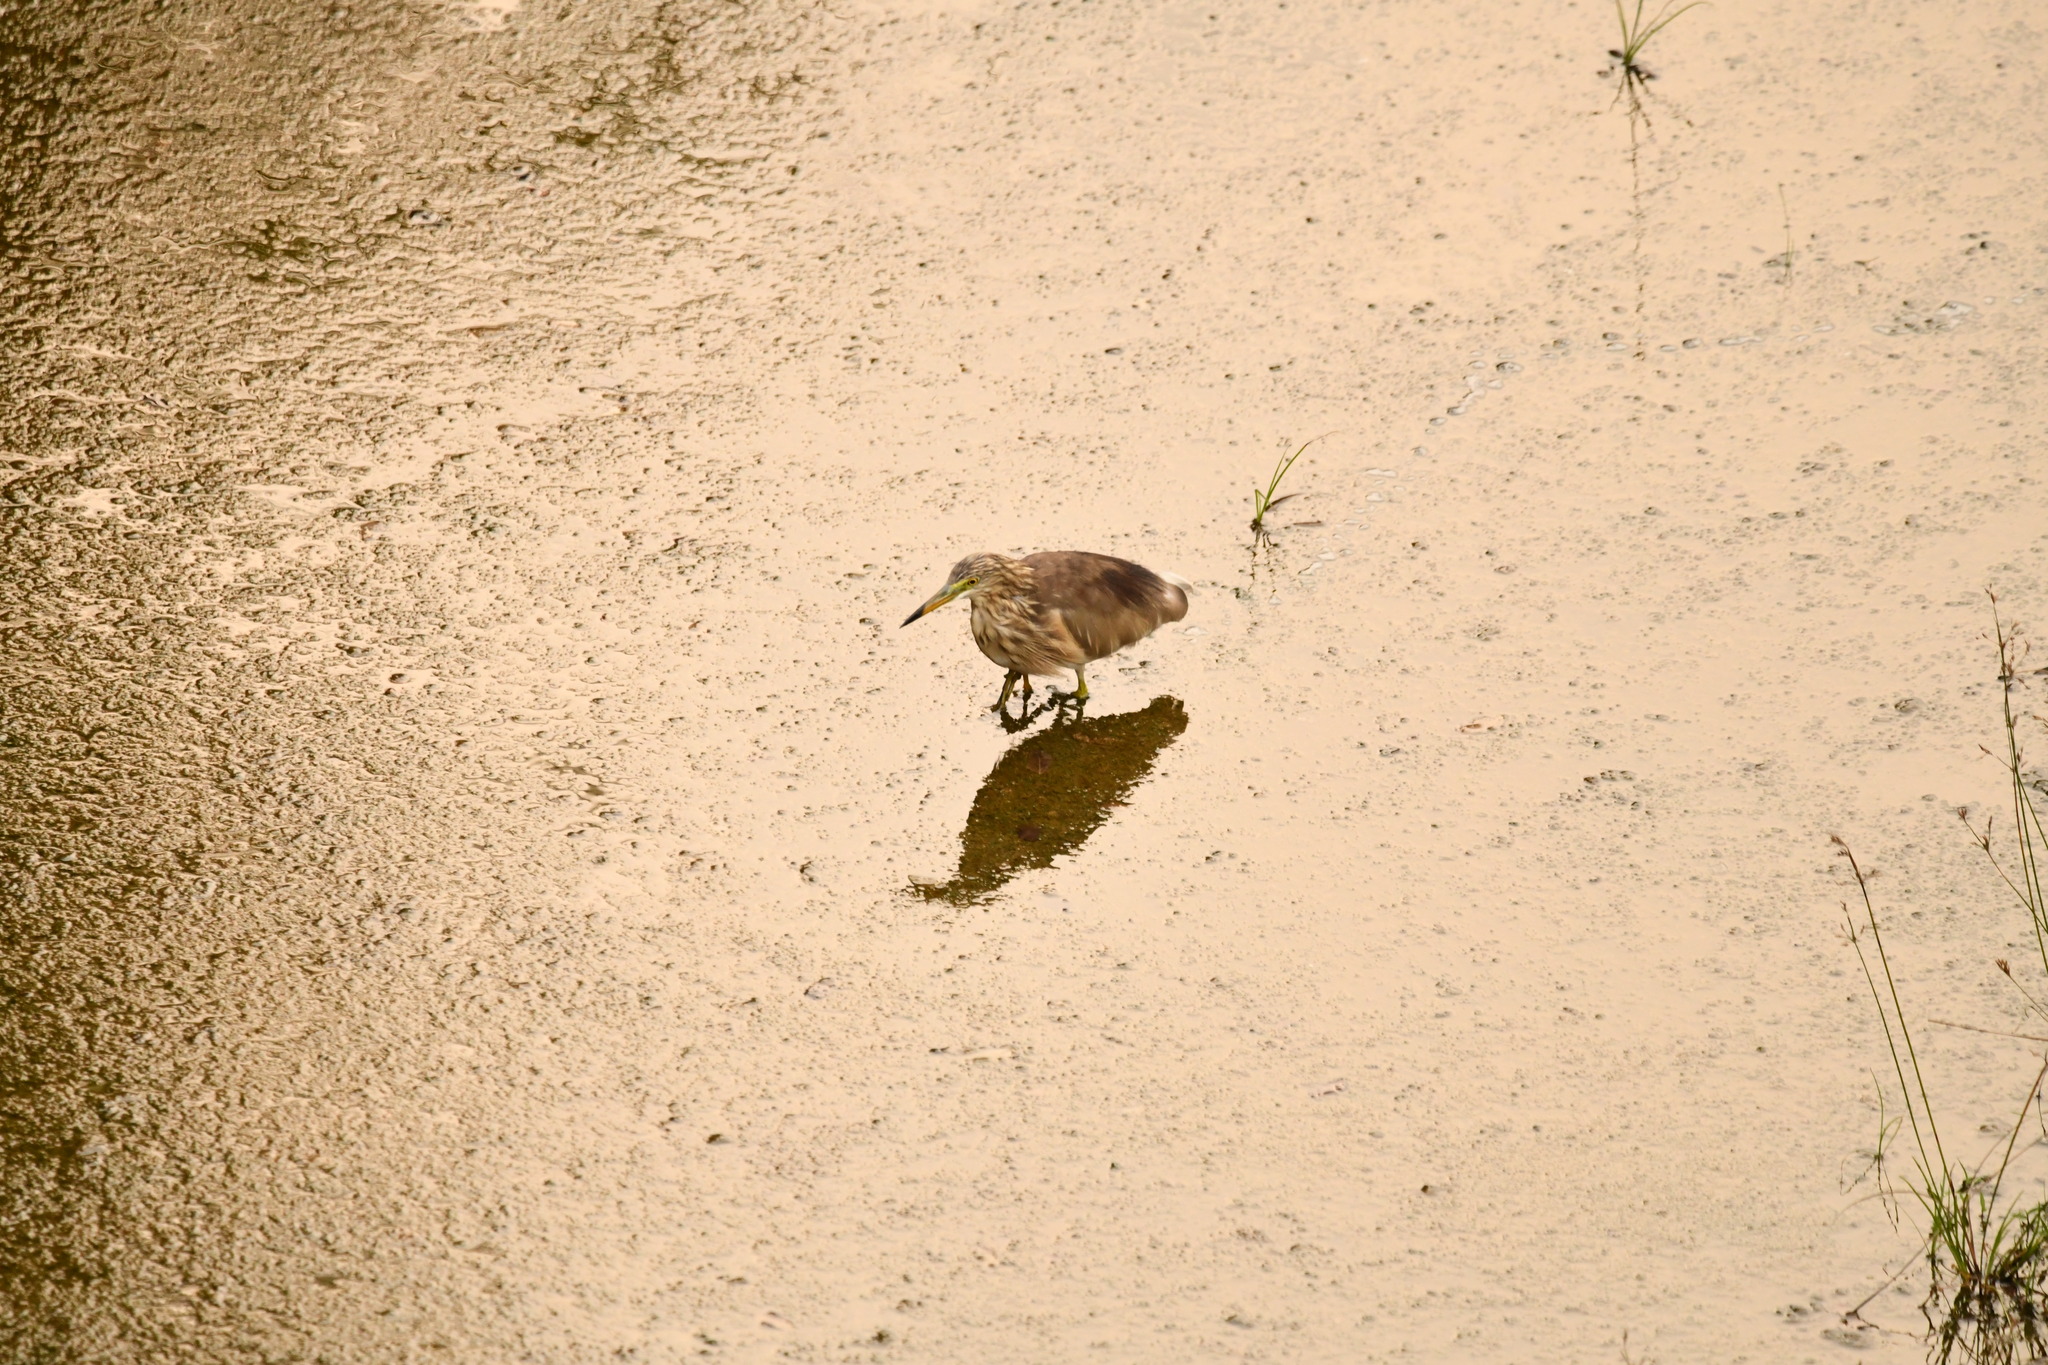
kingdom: Animalia
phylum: Chordata
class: Aves
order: Pelecaniformes
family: Ardeidae
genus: Ardeola
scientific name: Ardeola grayii
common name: Indian pond heron
